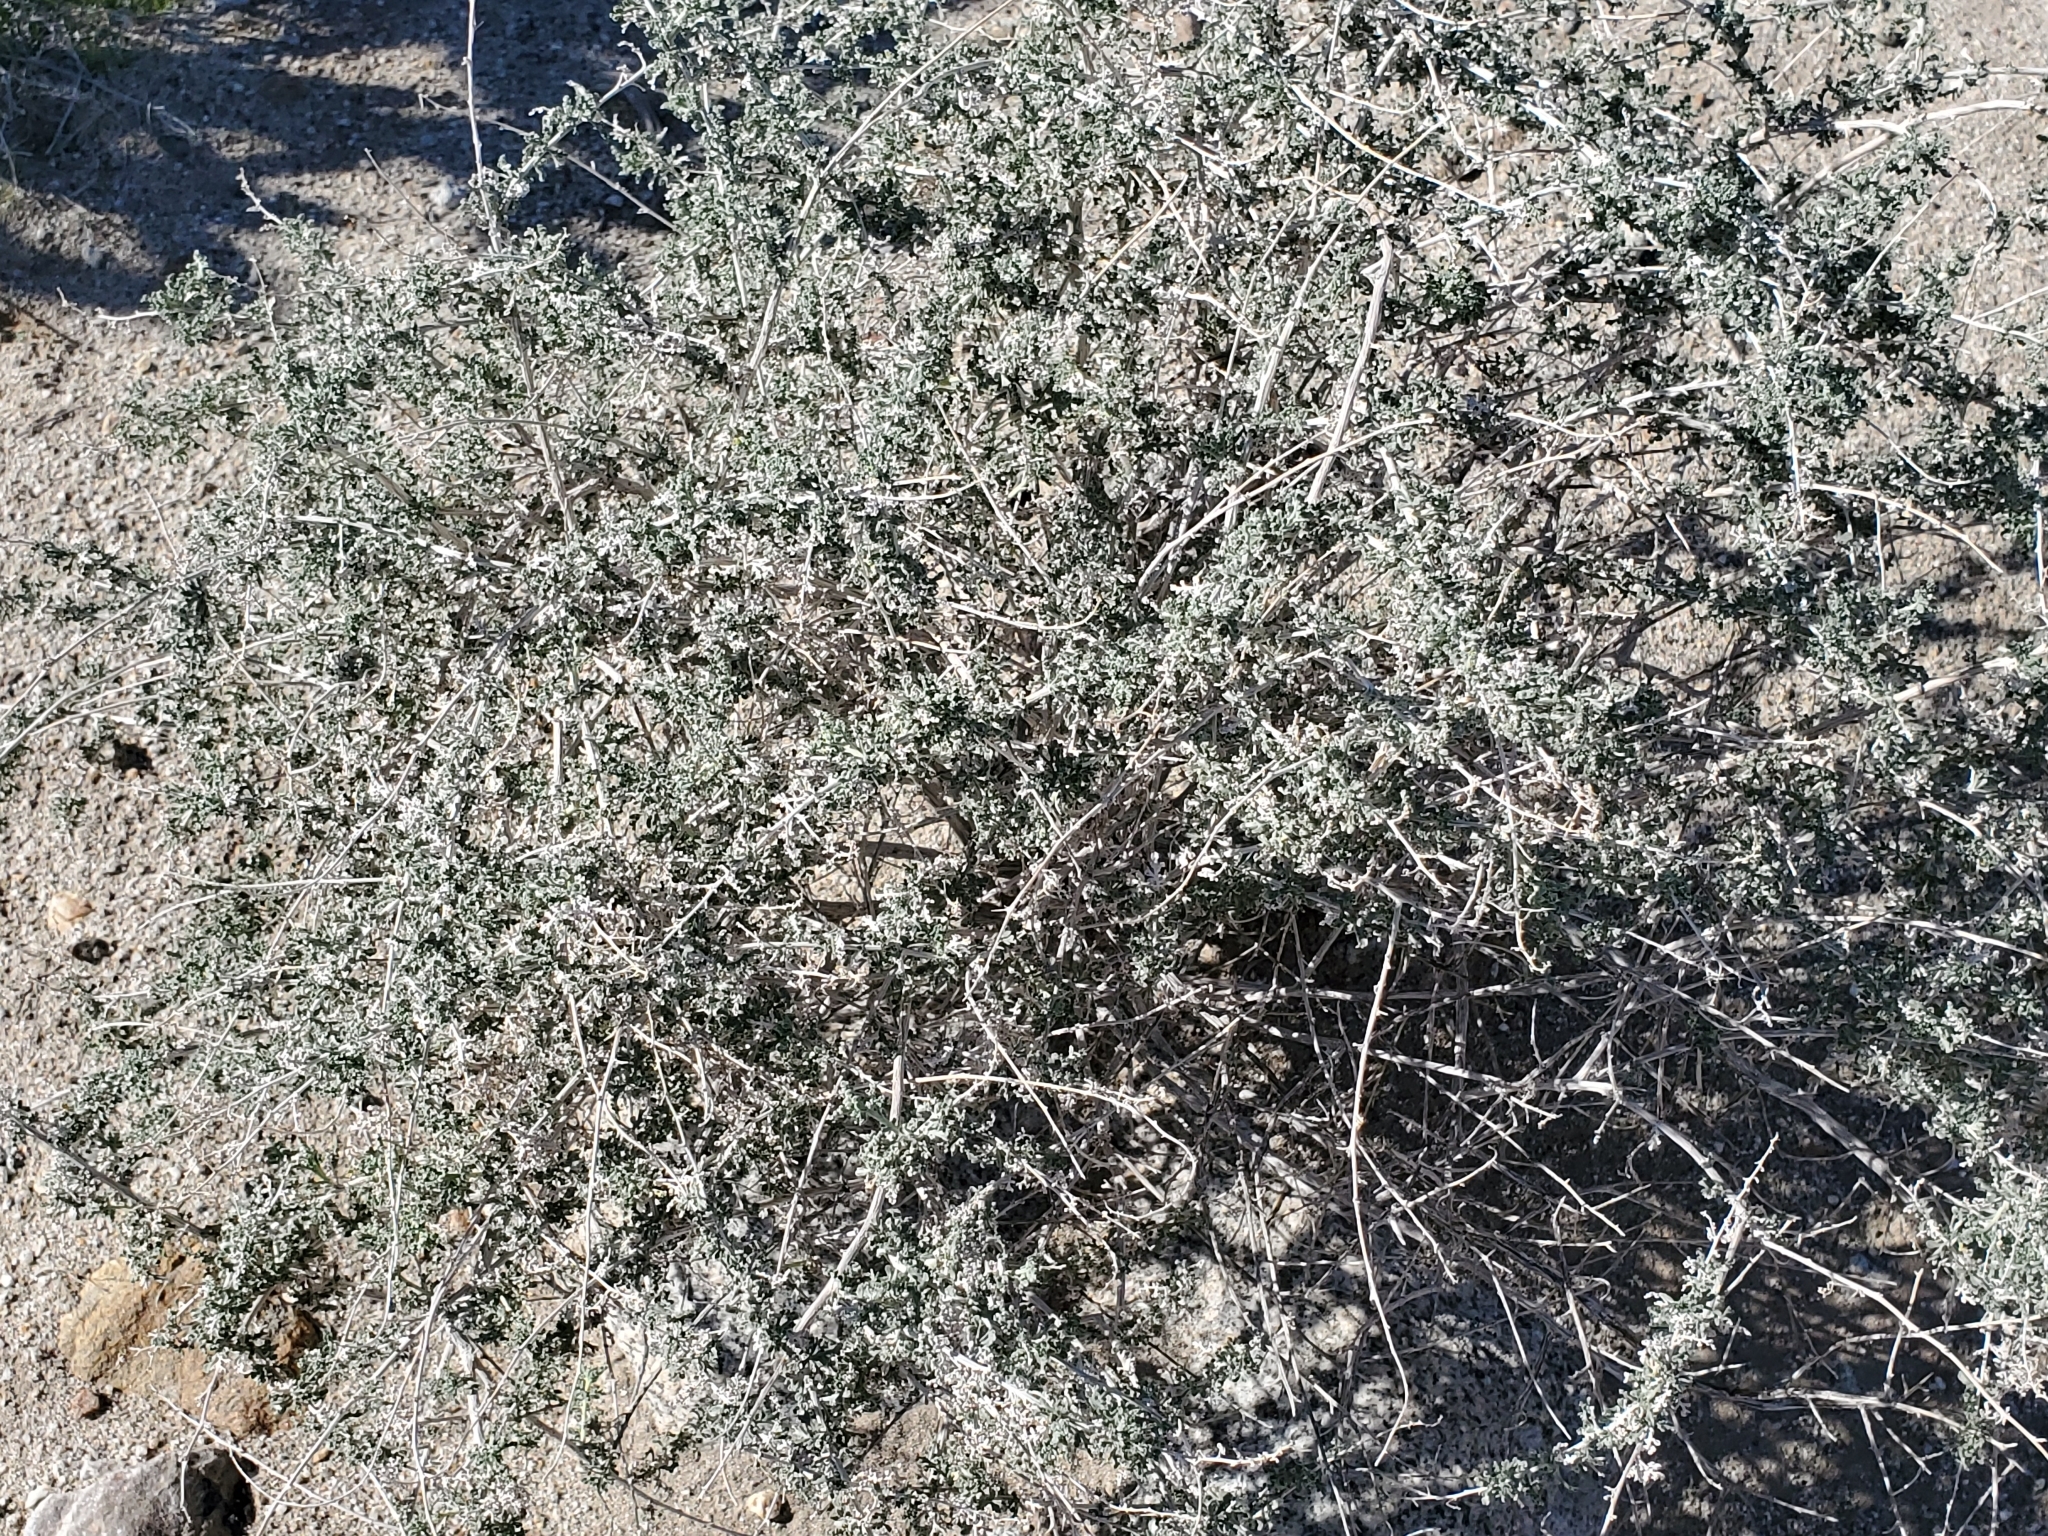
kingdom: Plantae
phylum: Tracheophyta
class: Magnoliopsida
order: Asterales
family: Asteraceae
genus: Ambrosia
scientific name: Ambrosia dumosa
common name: Bur-sage
